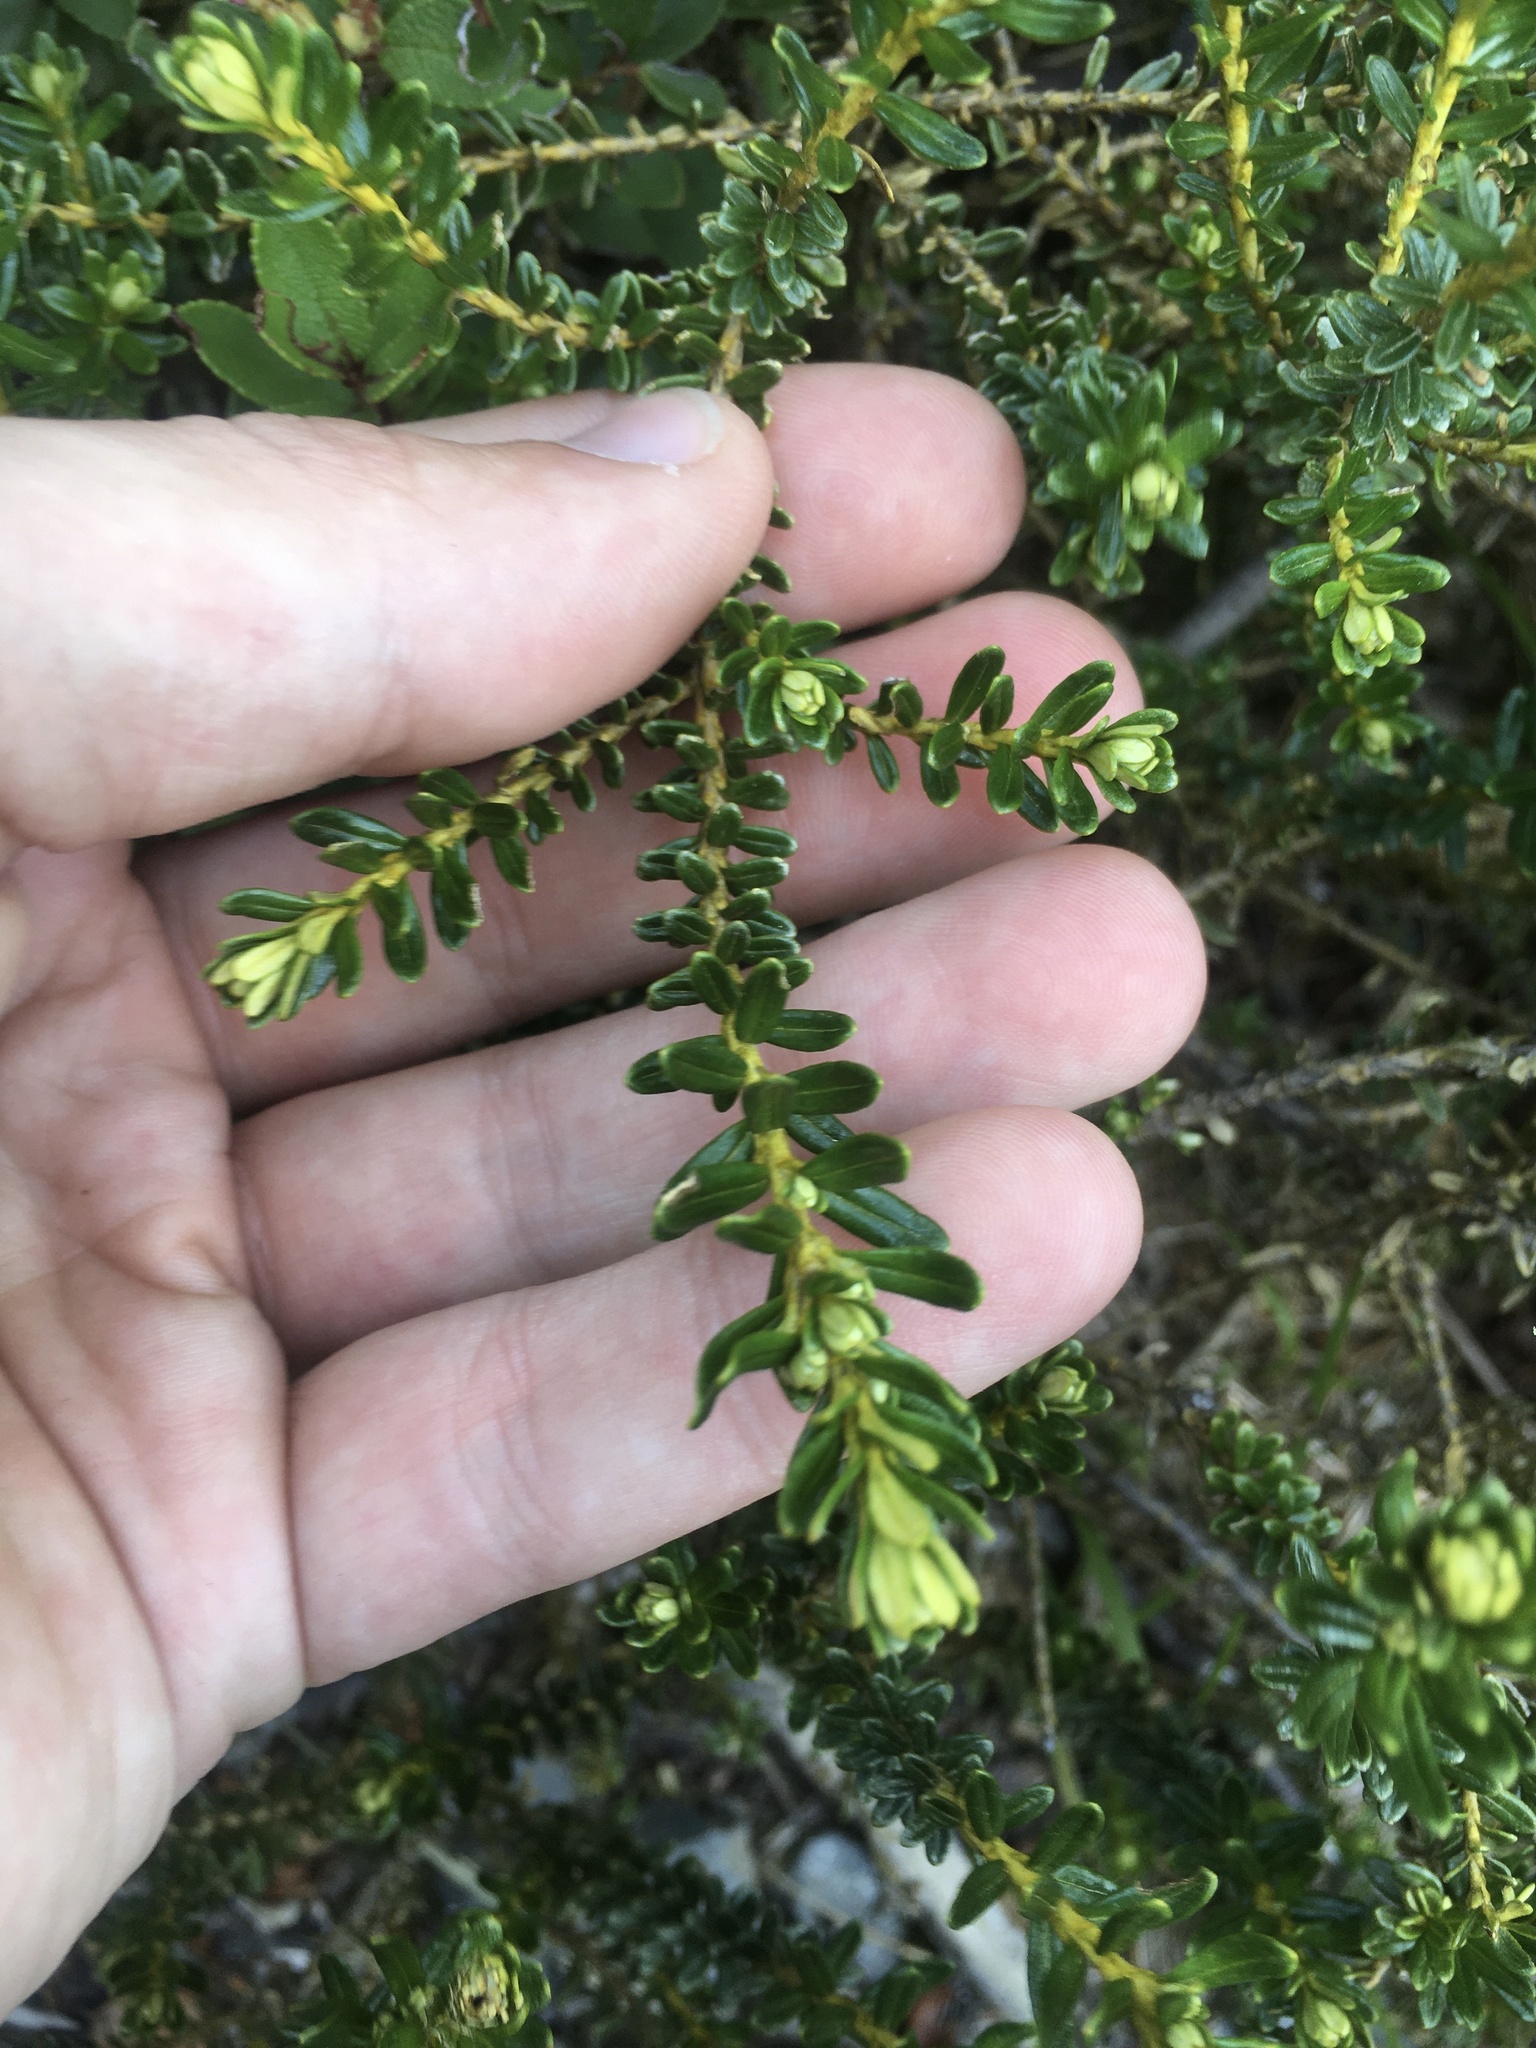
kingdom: Plantae
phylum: Tracheophyta
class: Magnoliopsida
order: Asterales
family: Asteraceae
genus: Ozothamnus
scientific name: Ozothamnus leptophyllus
